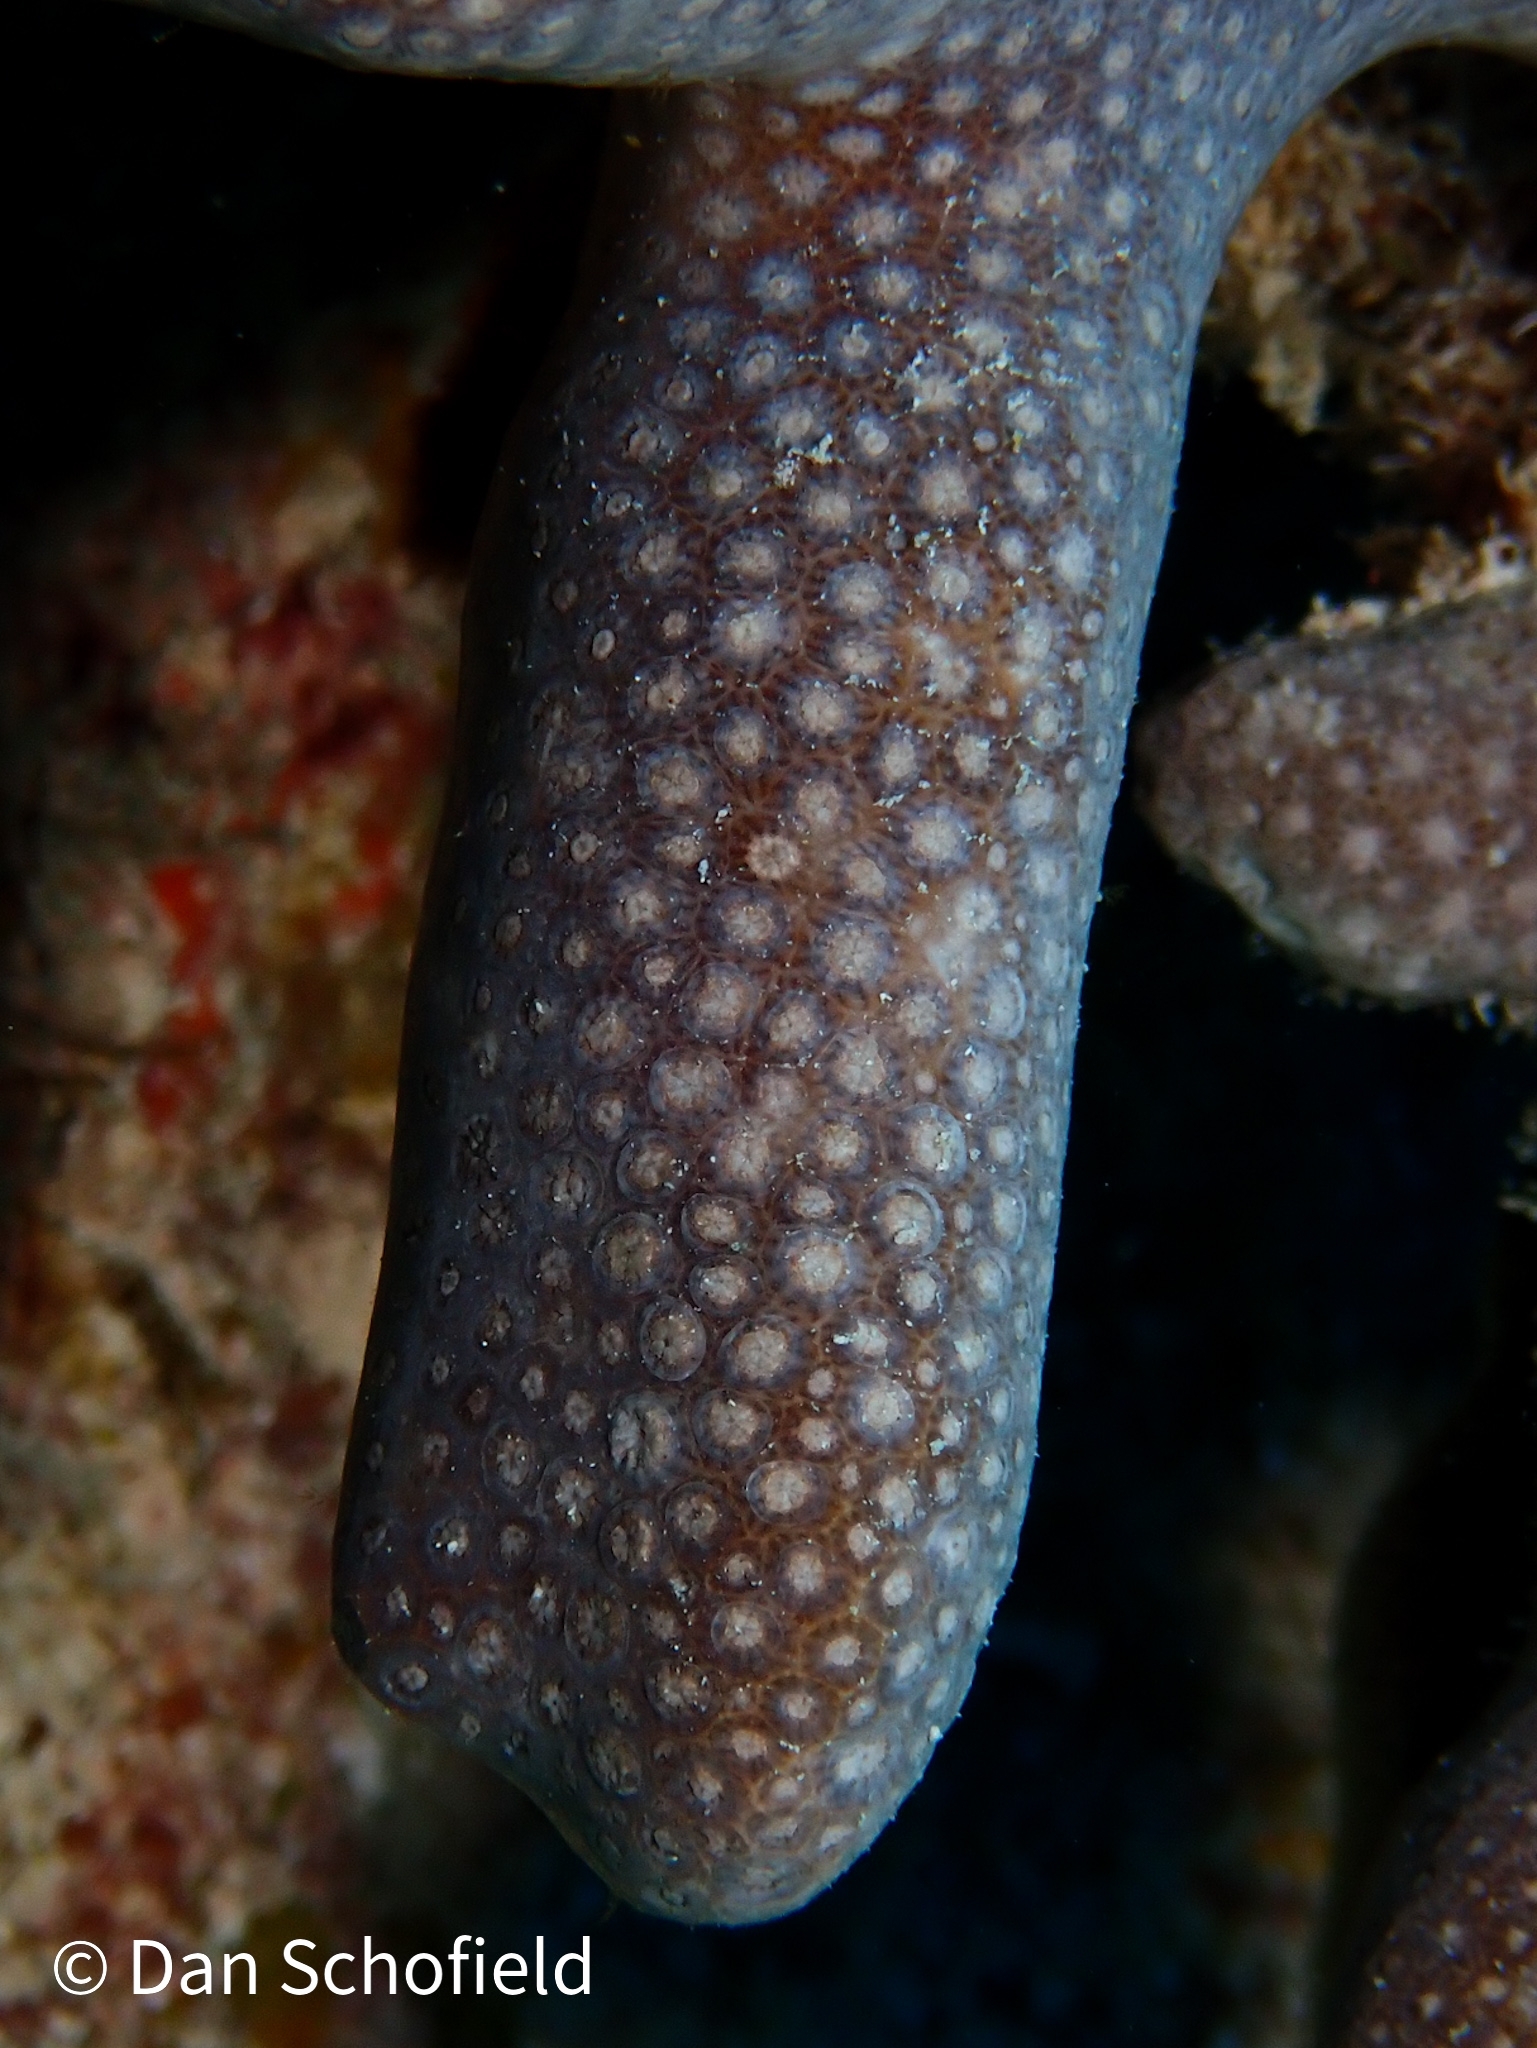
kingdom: Animalia
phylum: Cnidaria
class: Anthozoa
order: Scleractinia
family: Poritidae
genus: Porites
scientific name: Porites porites
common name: Finger coral
